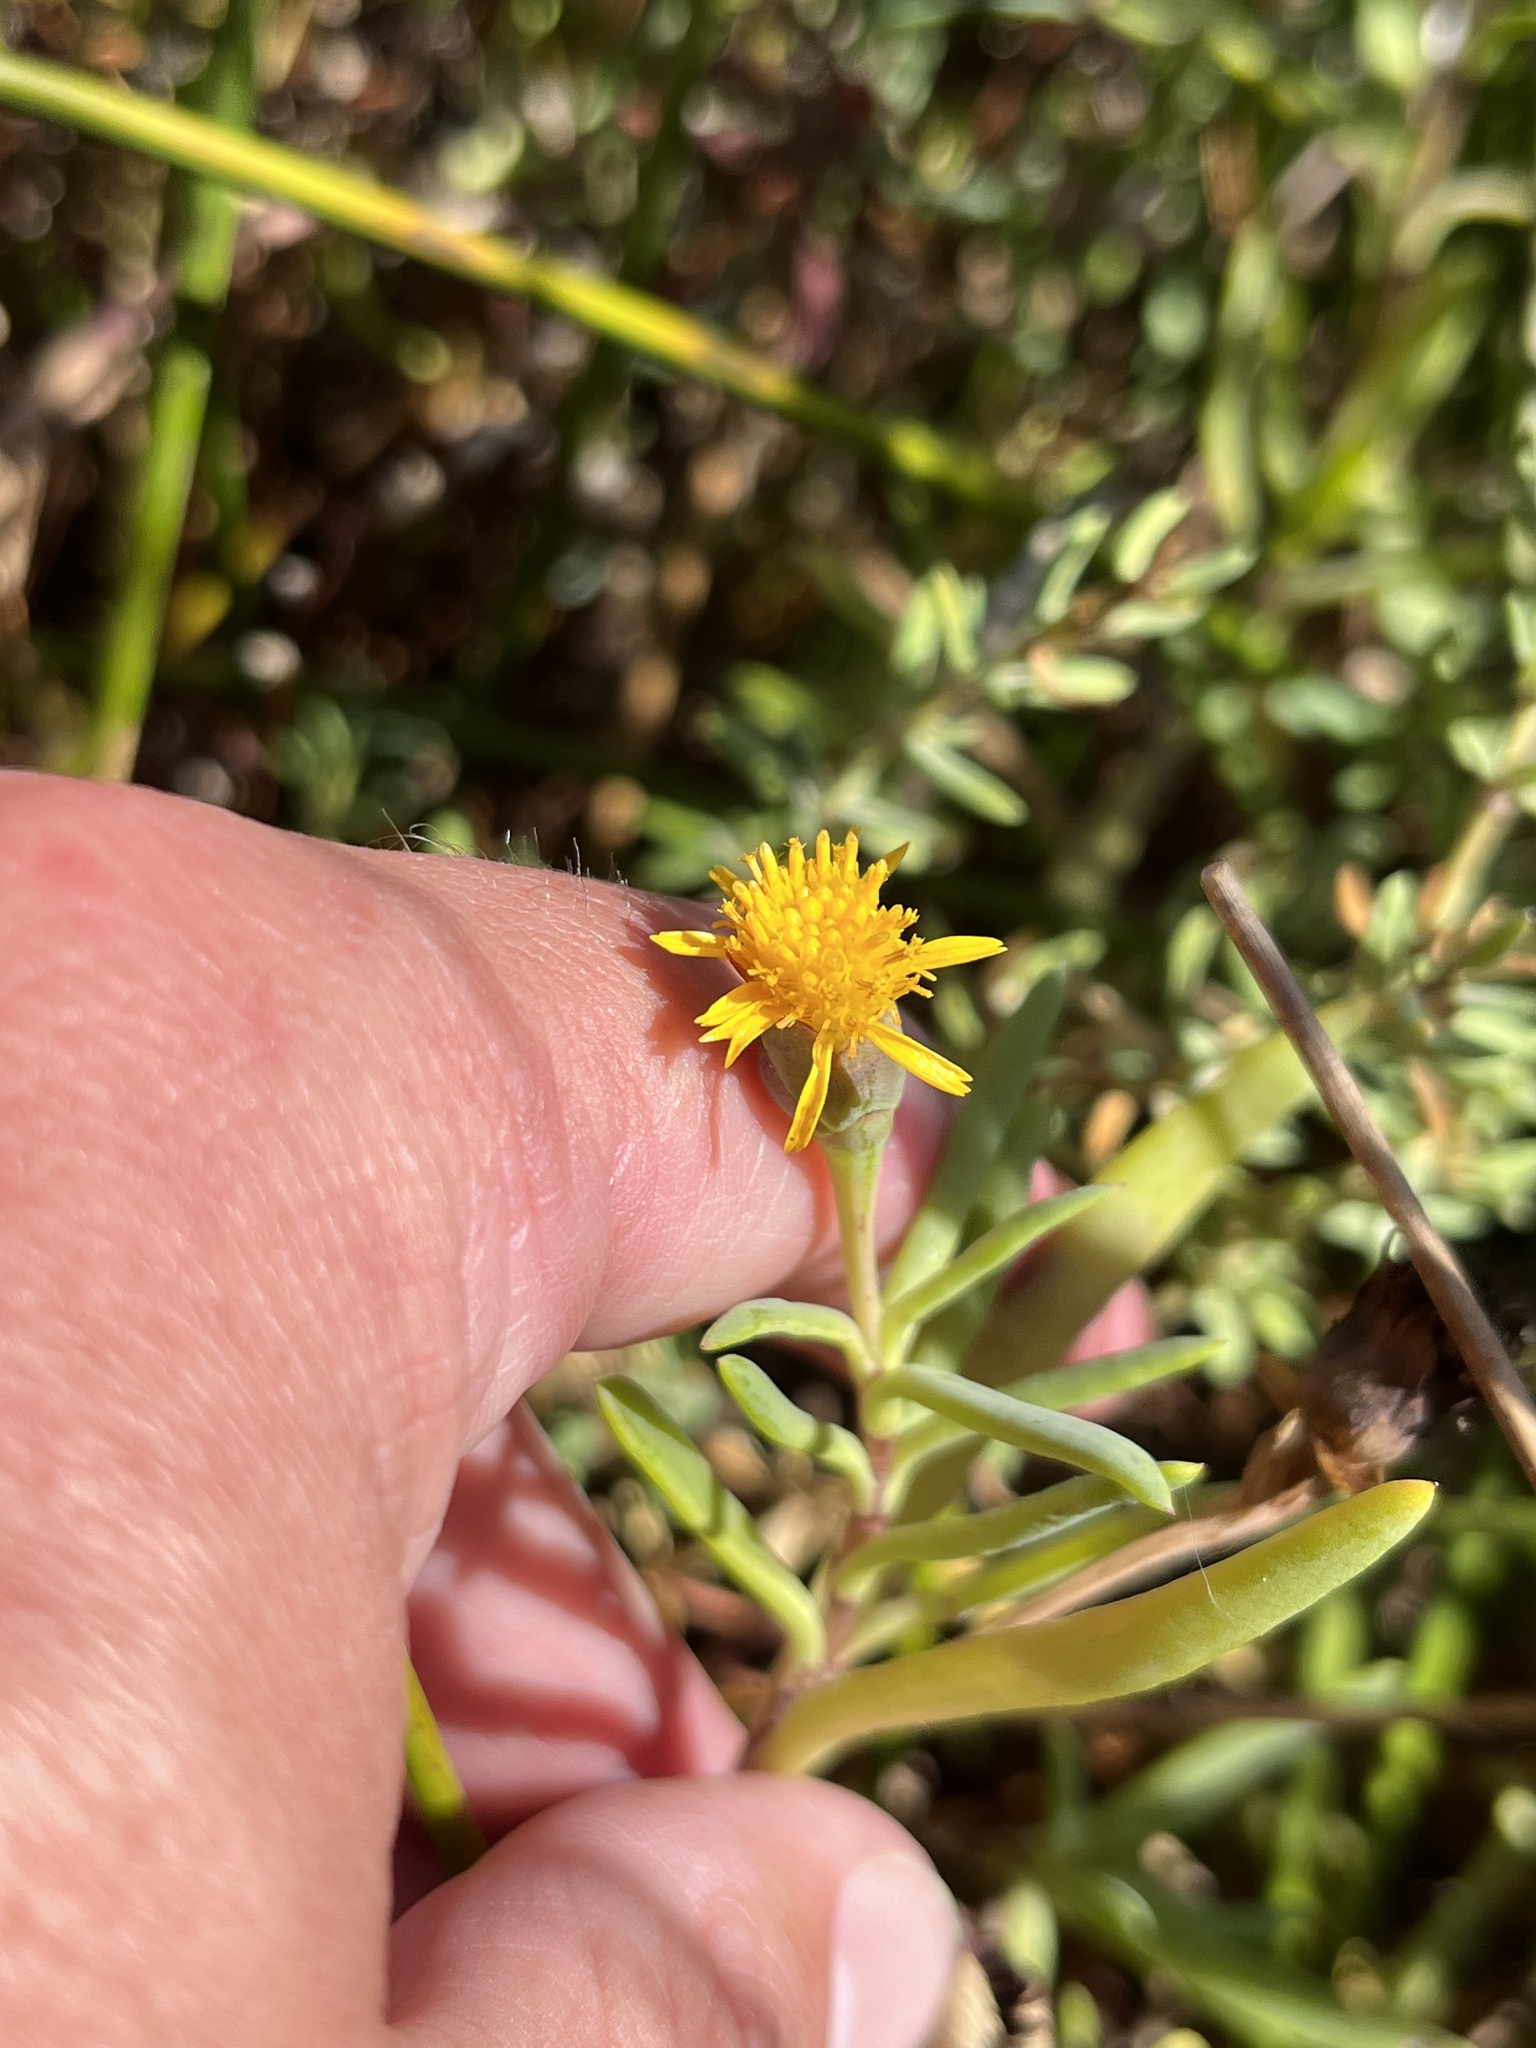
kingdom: Plantae
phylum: Tracheophyta
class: Magnoliopsida
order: Asterales
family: Asteraceae
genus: Jaumea
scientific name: Jaumea carnosa
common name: Fleshy jaumea
